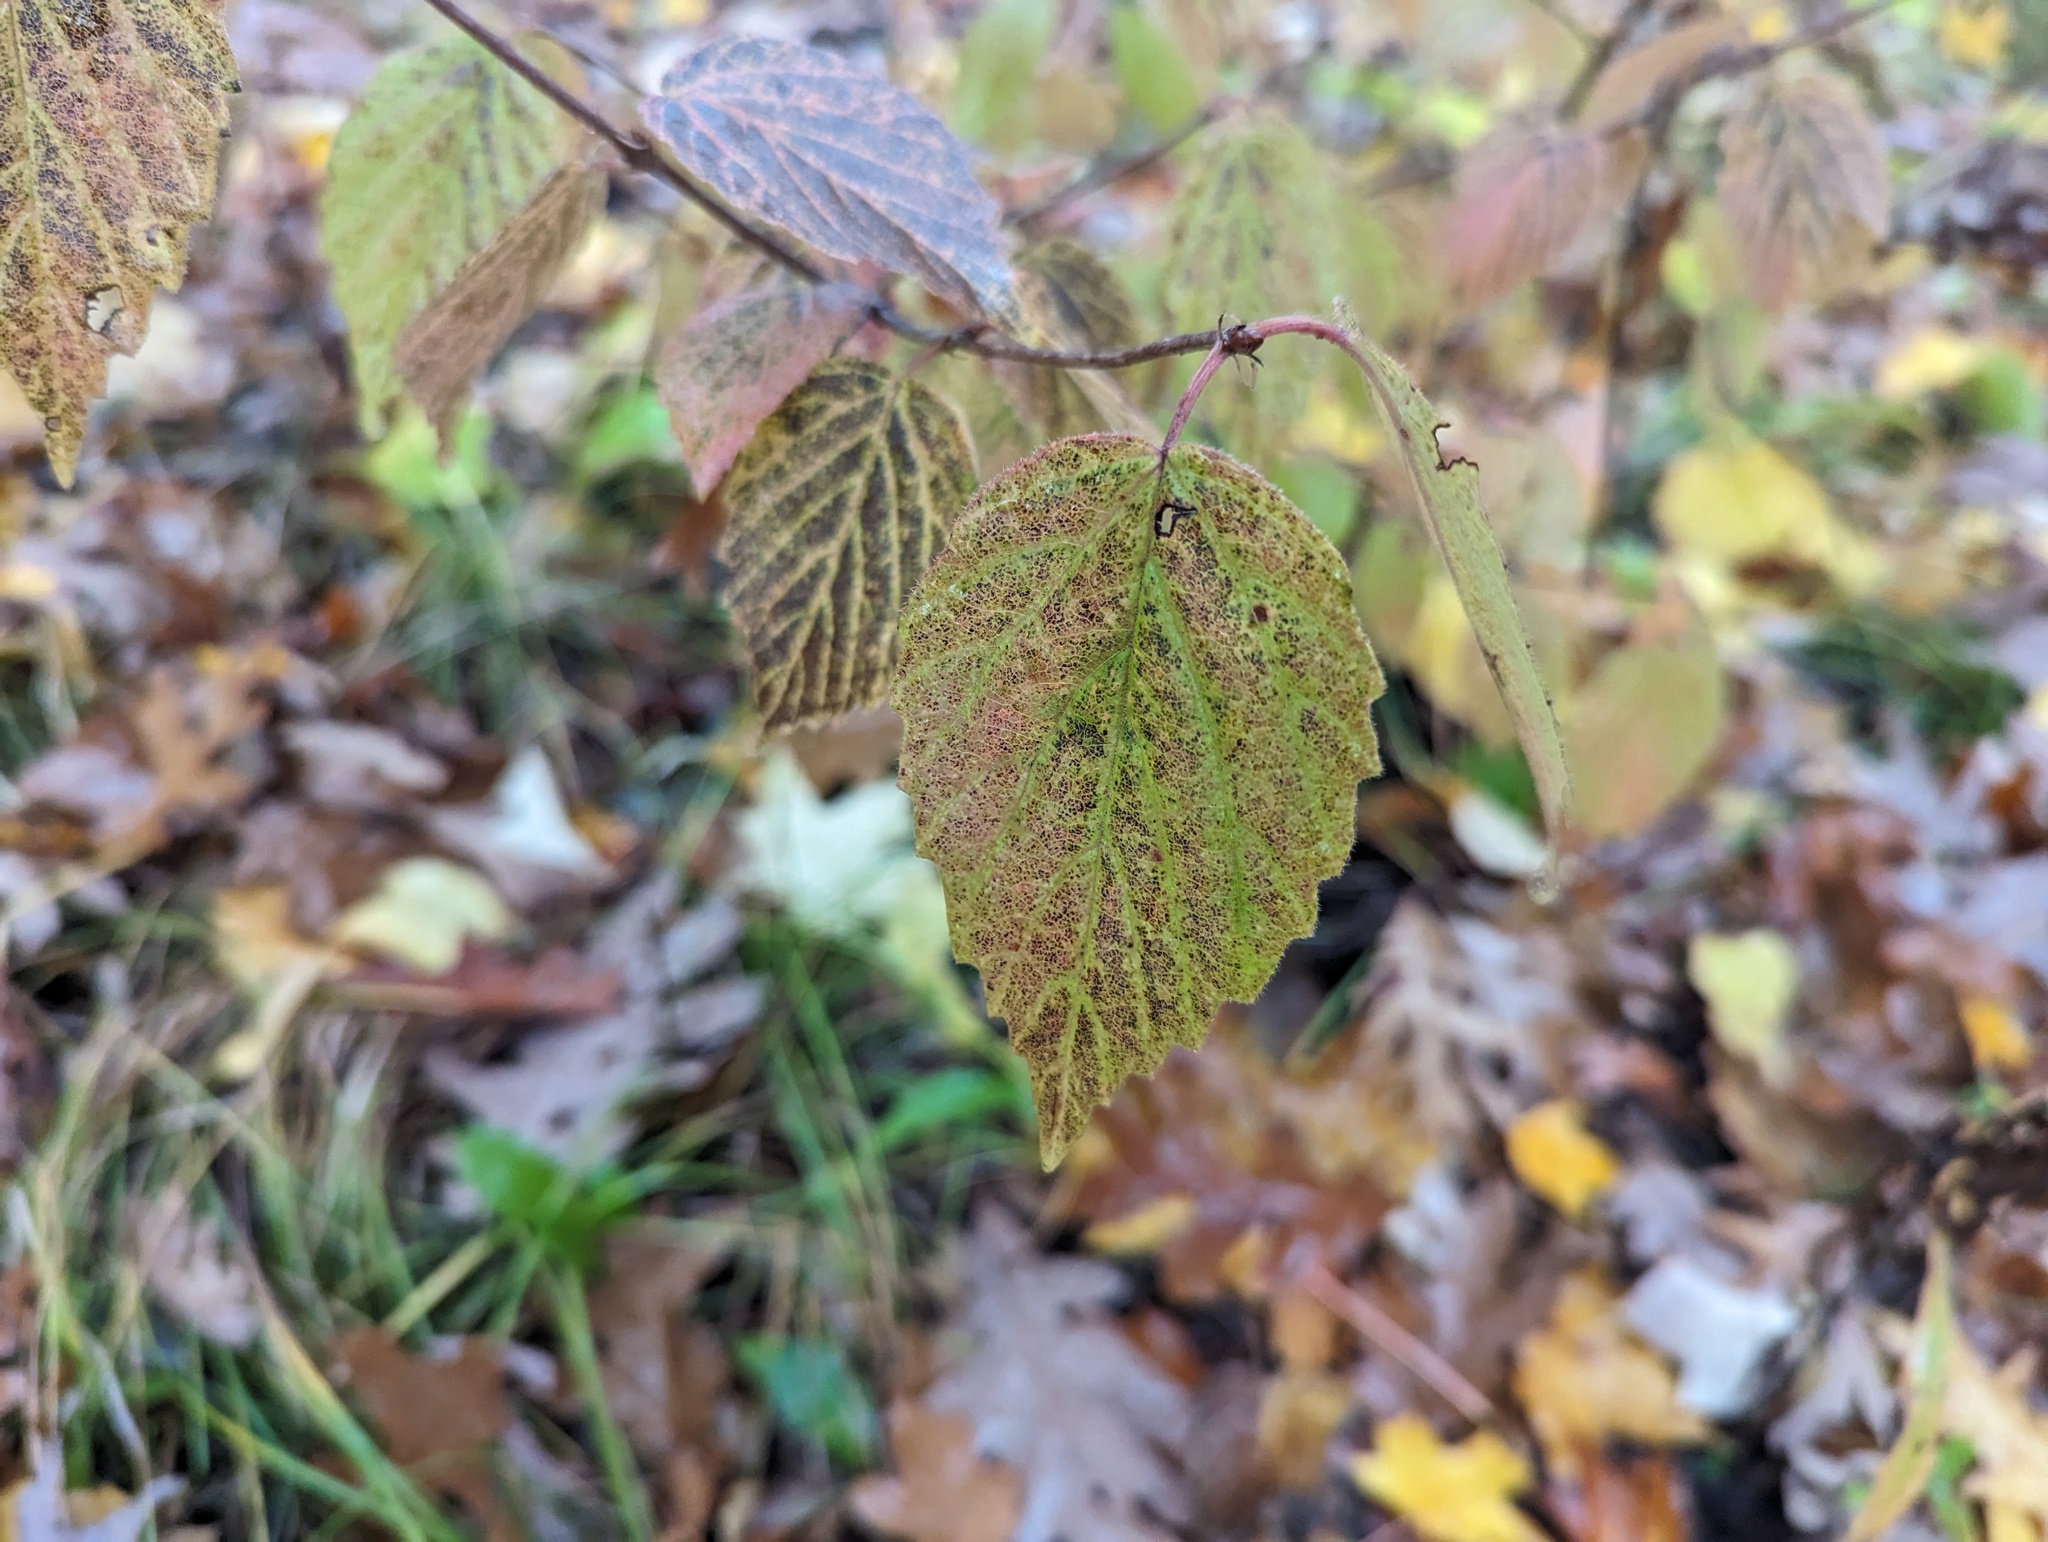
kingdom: Plantae
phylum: Tracheophyta
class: Magnoliopsida
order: Dipsacales
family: Viburnaceae
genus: Viburnum
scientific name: Viburnum rafinesqueanum
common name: Downy arrow-wood
